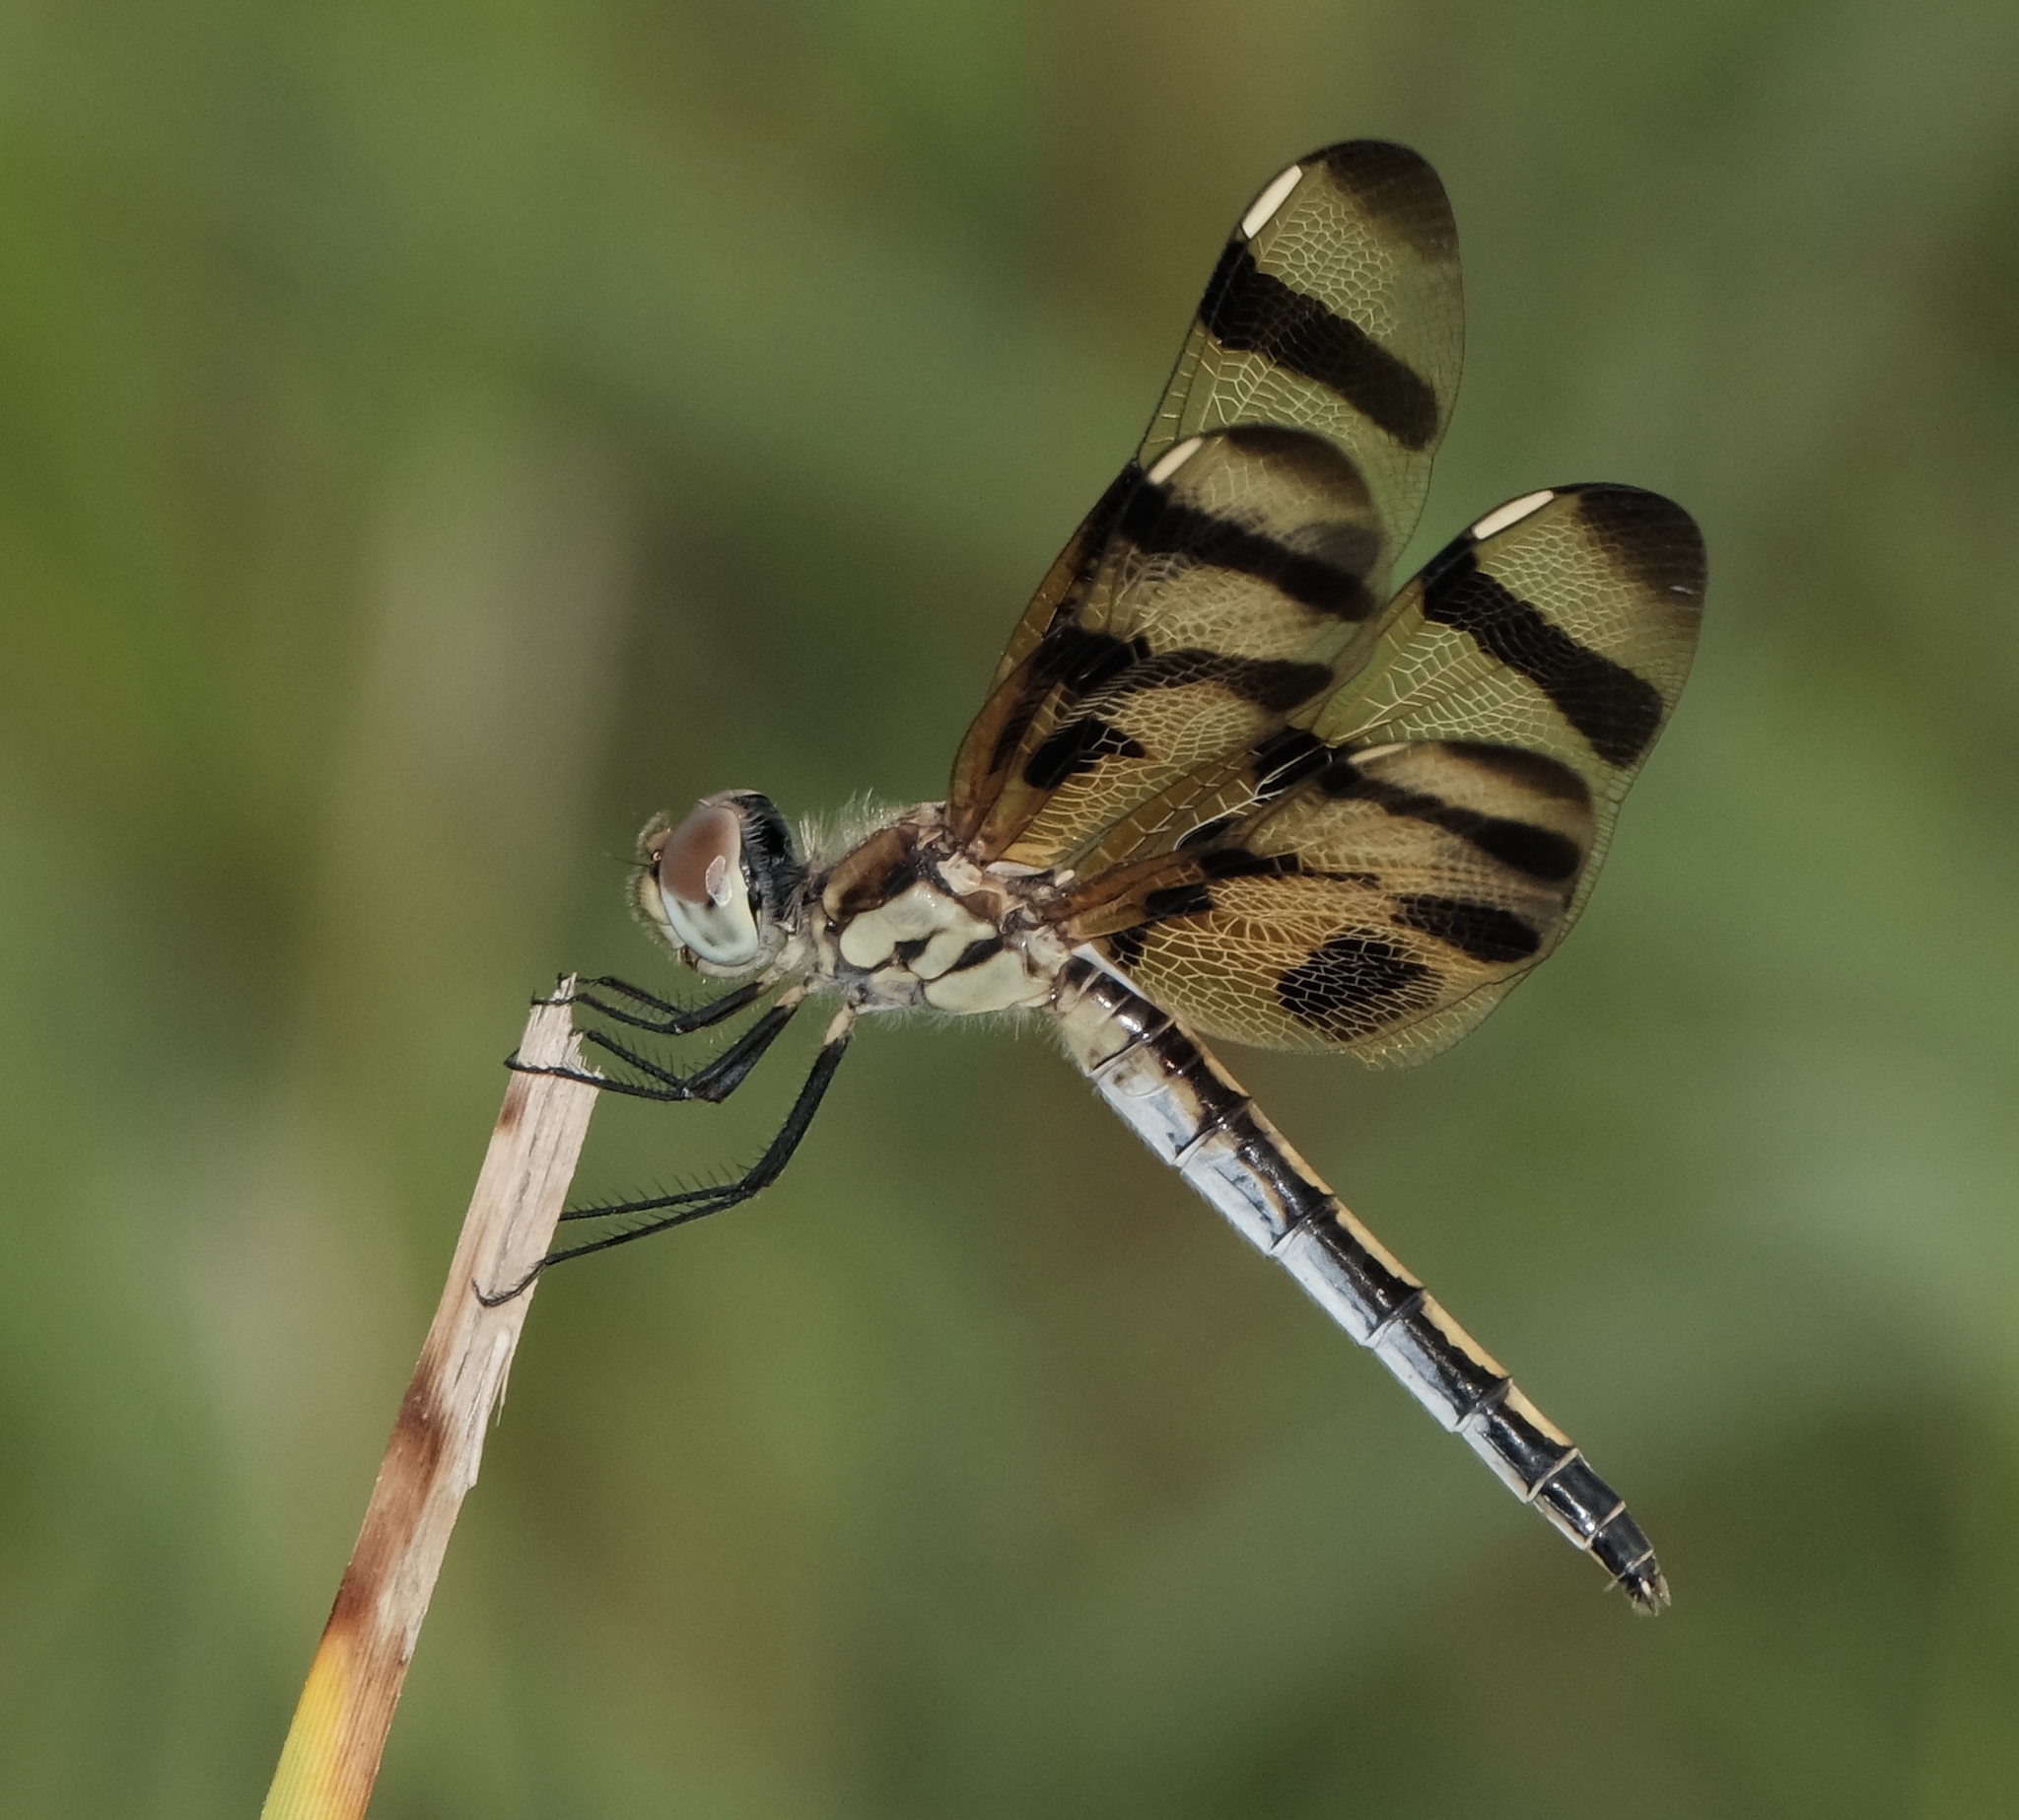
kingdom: Animalia
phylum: Arthropoda
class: Insecta
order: Odonata
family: Libellulidae
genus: Celithemis
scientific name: Celithemis eponina
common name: Halloween pennant
